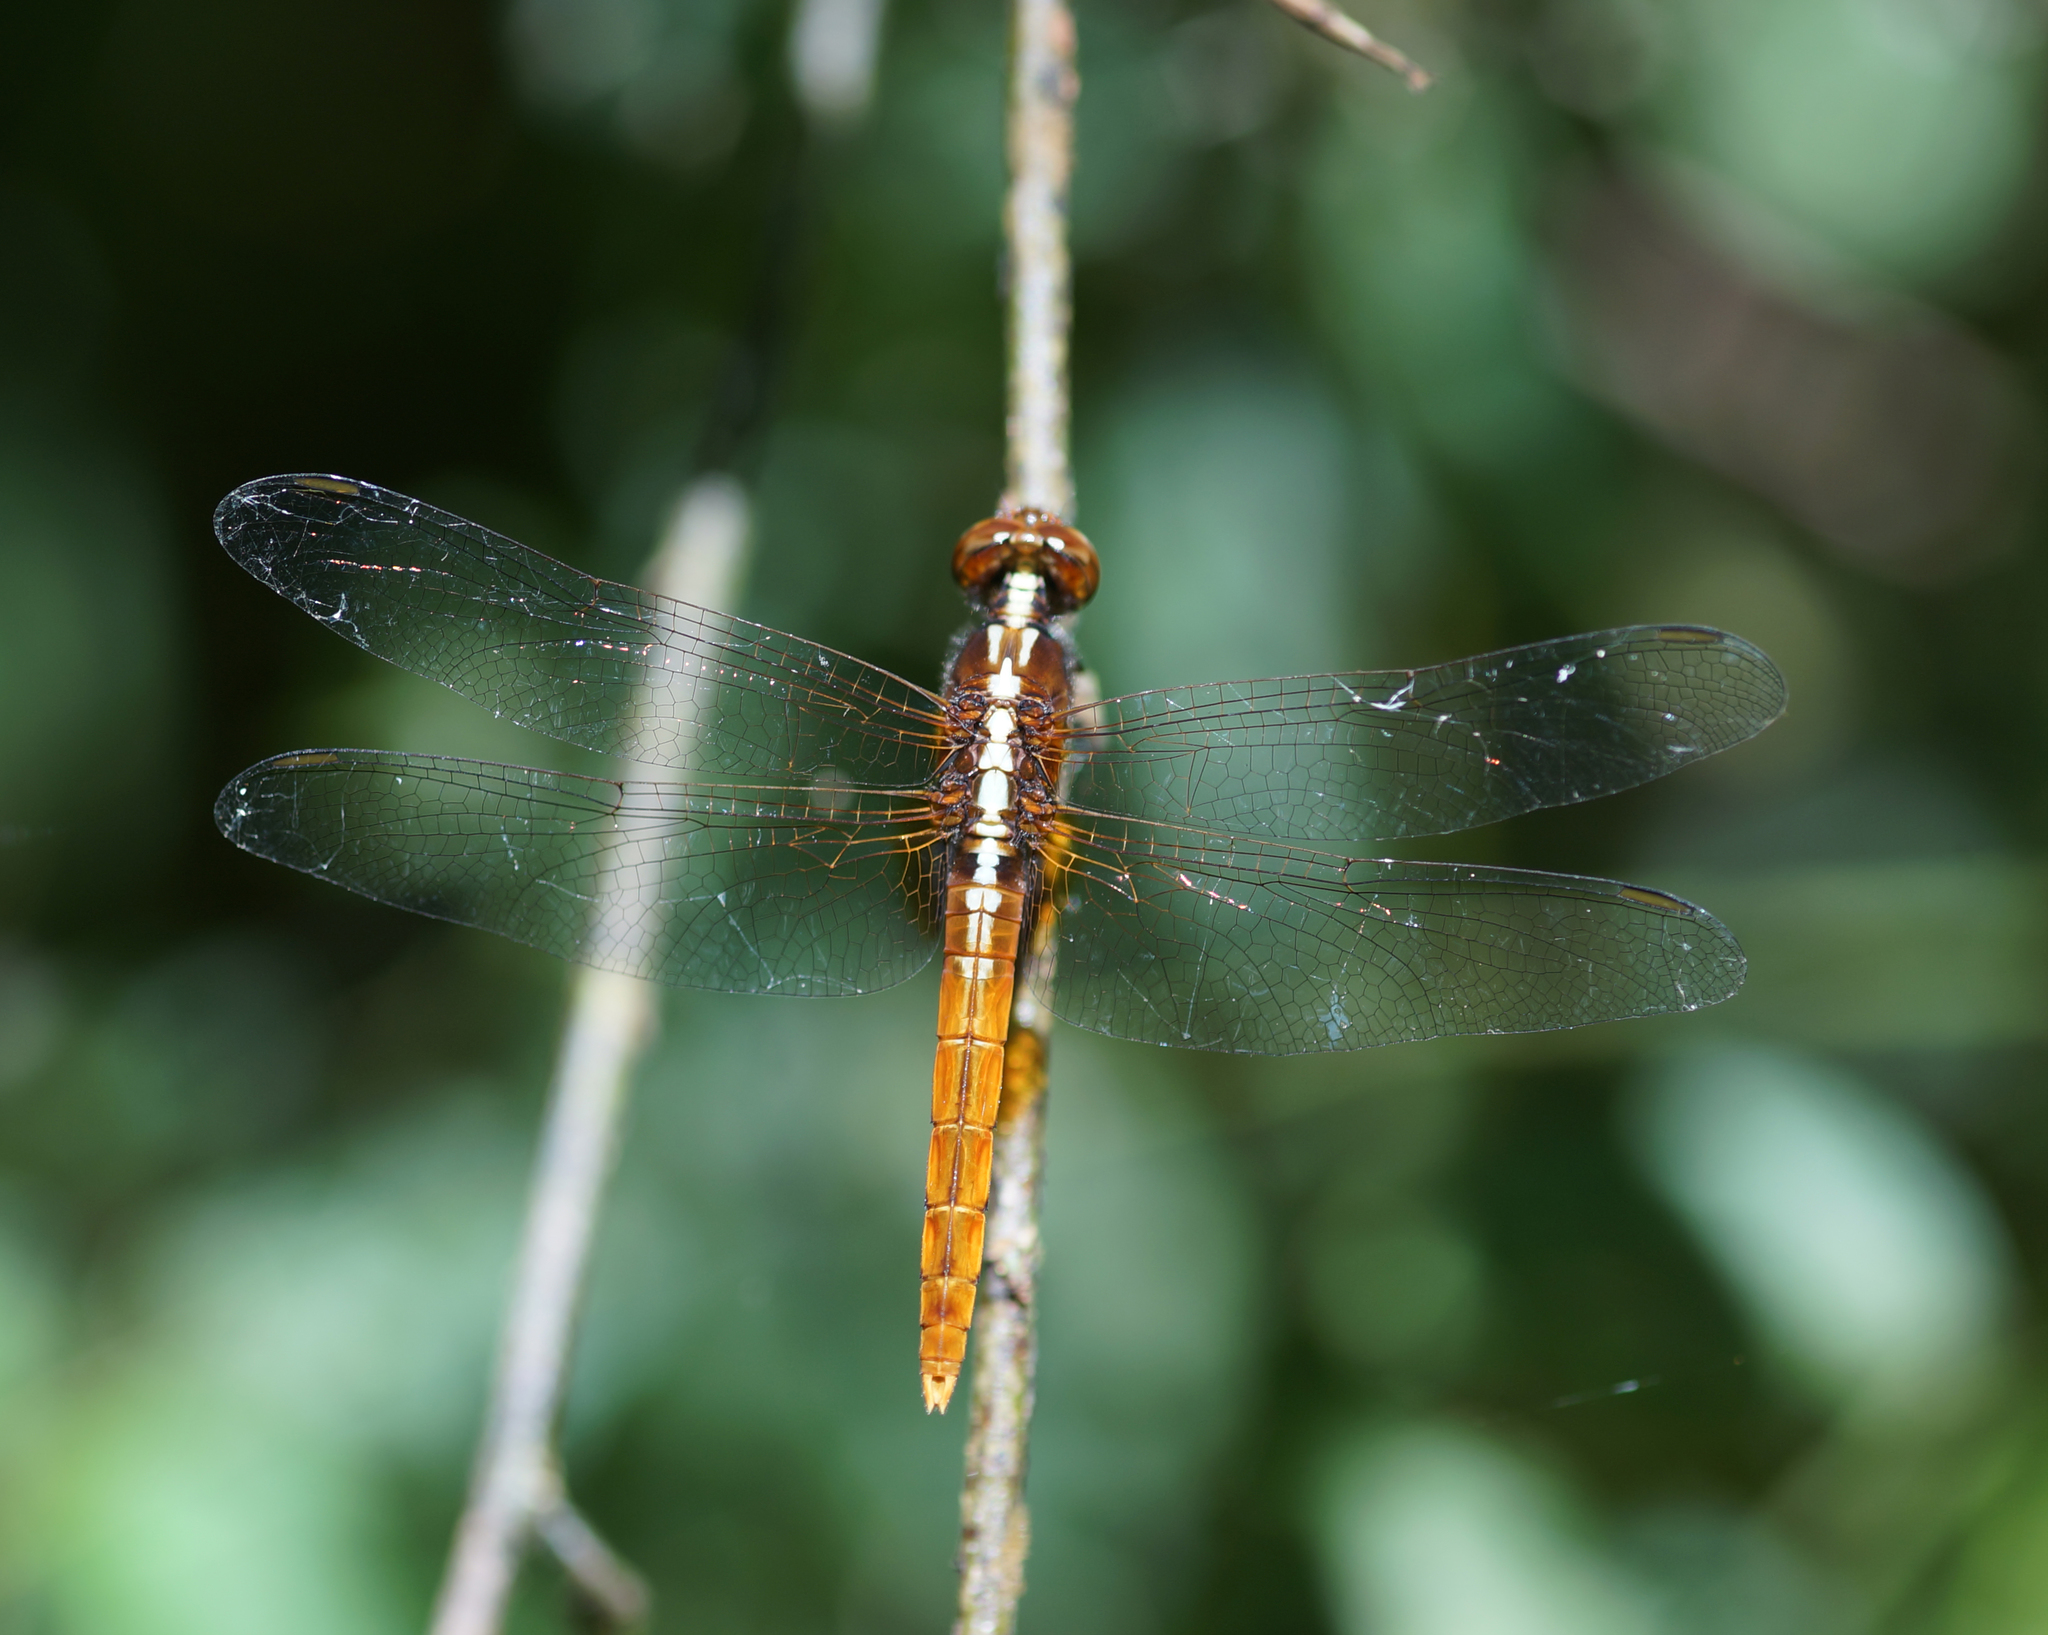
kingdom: Animalia
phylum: Arthropoda
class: Insecta
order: Odonata
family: Libellulidae
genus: Rhodothemis
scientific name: Rhodothemis rufa
